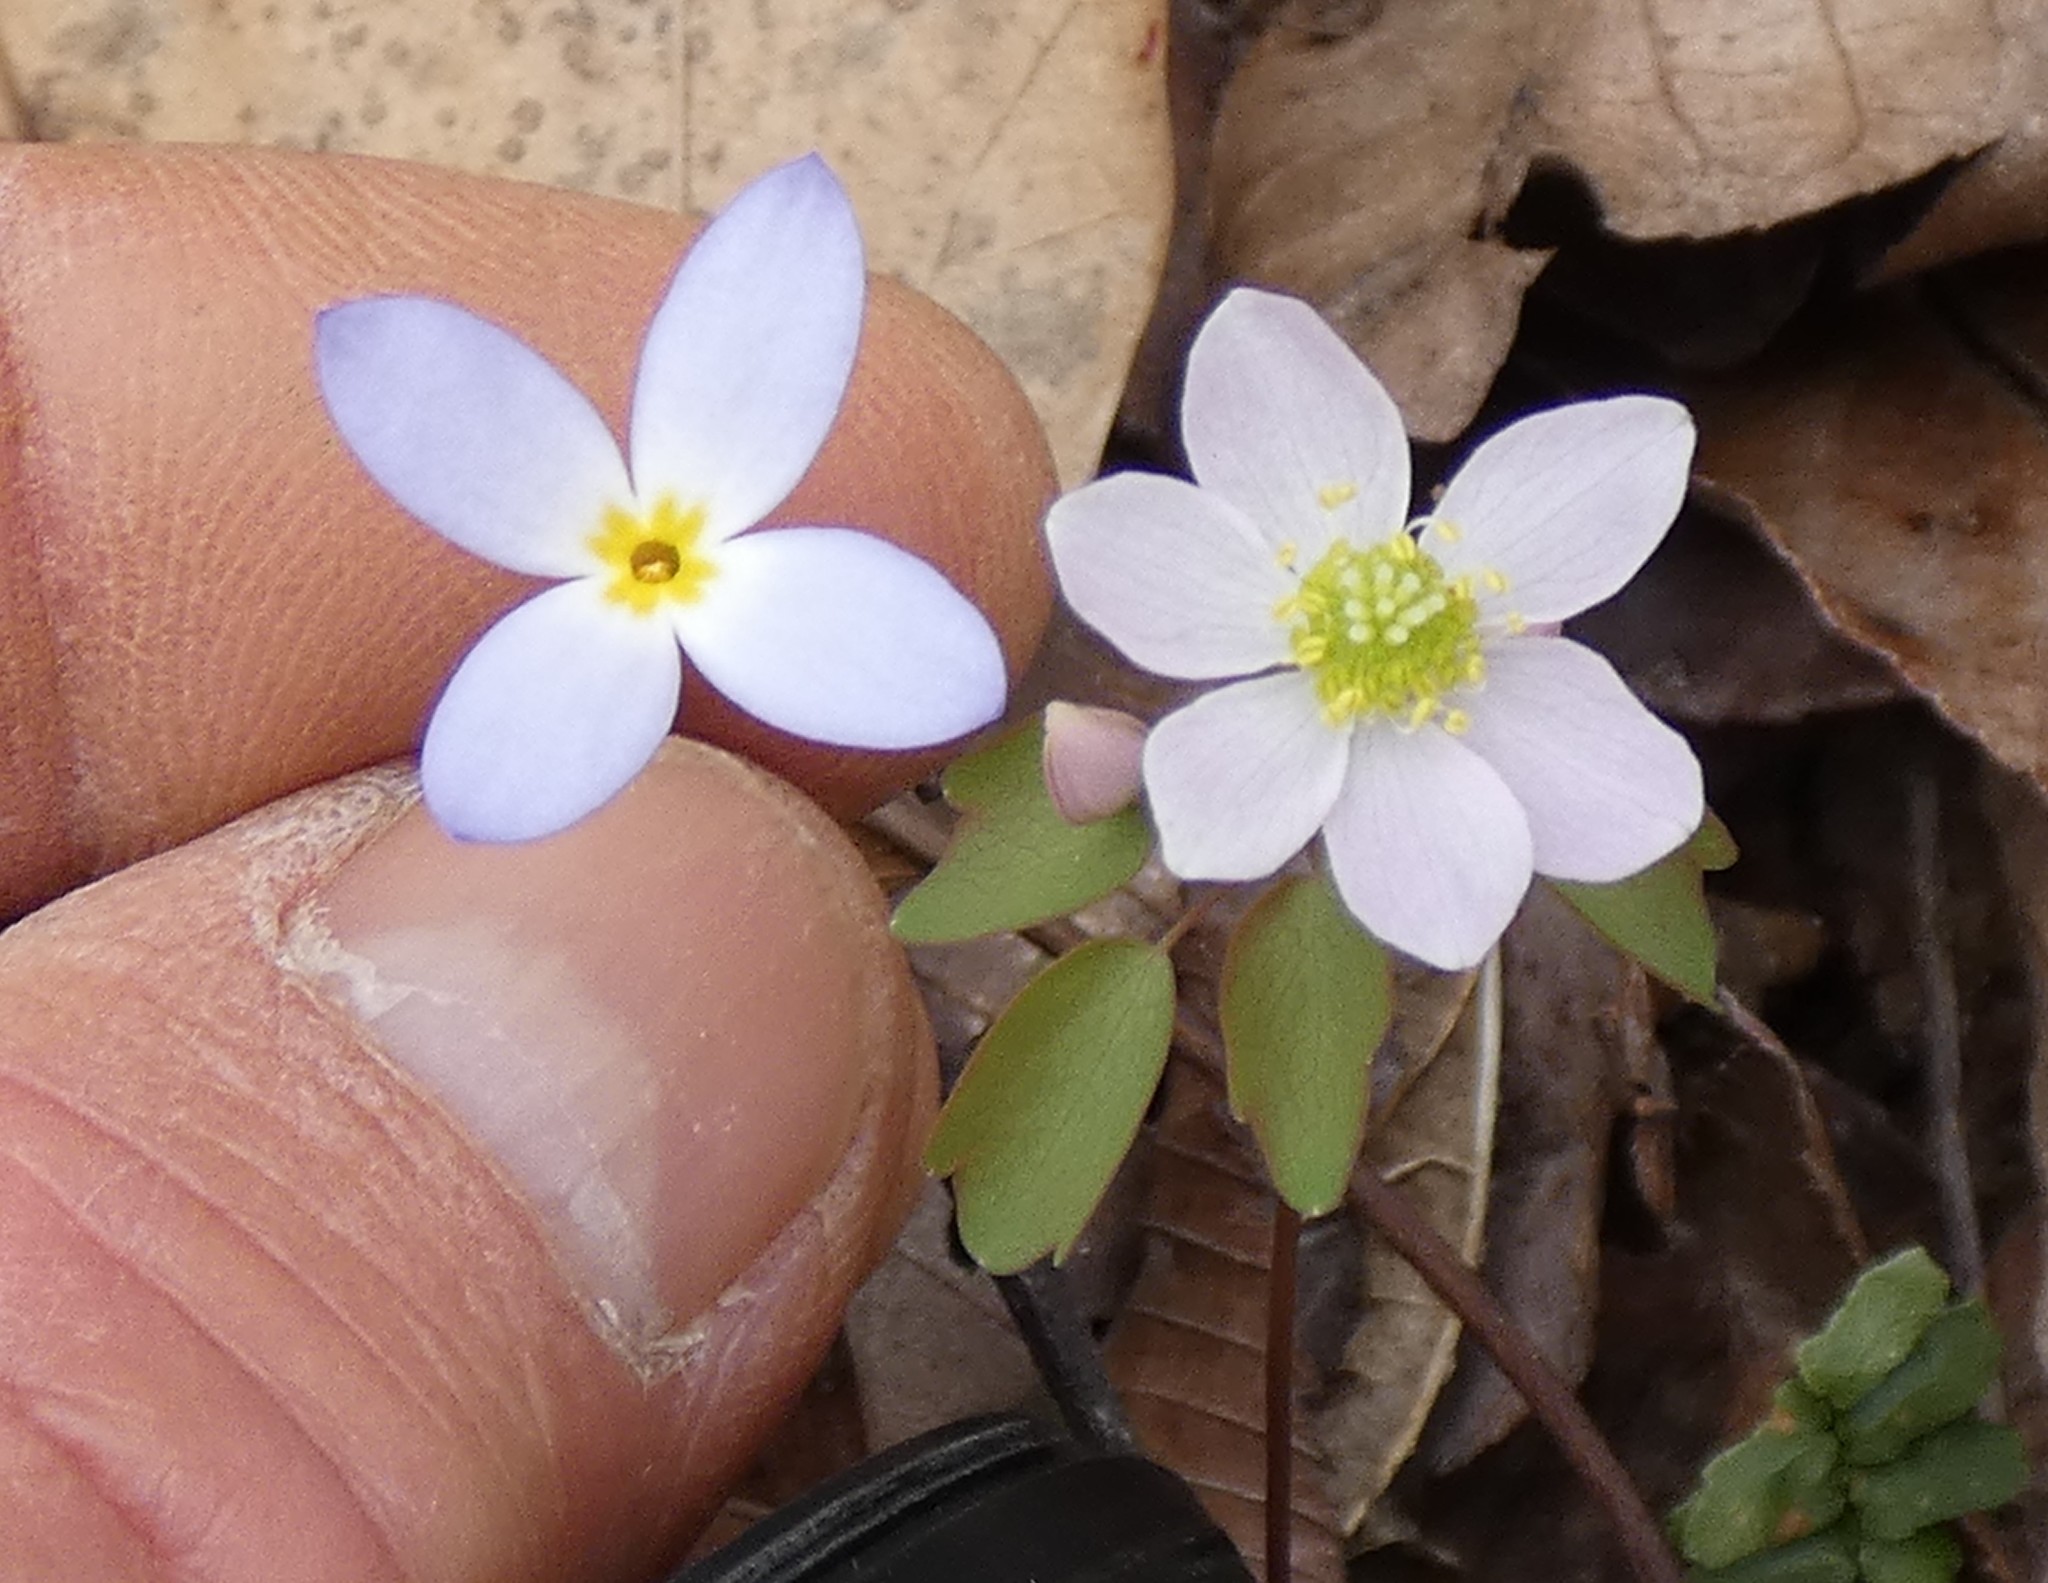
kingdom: Plantae
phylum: Tracheophyta
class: Magnoliopsida
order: Gentianales
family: Rubiaceae
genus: Houstonia
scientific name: Houstonia caerulea
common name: Bluets
